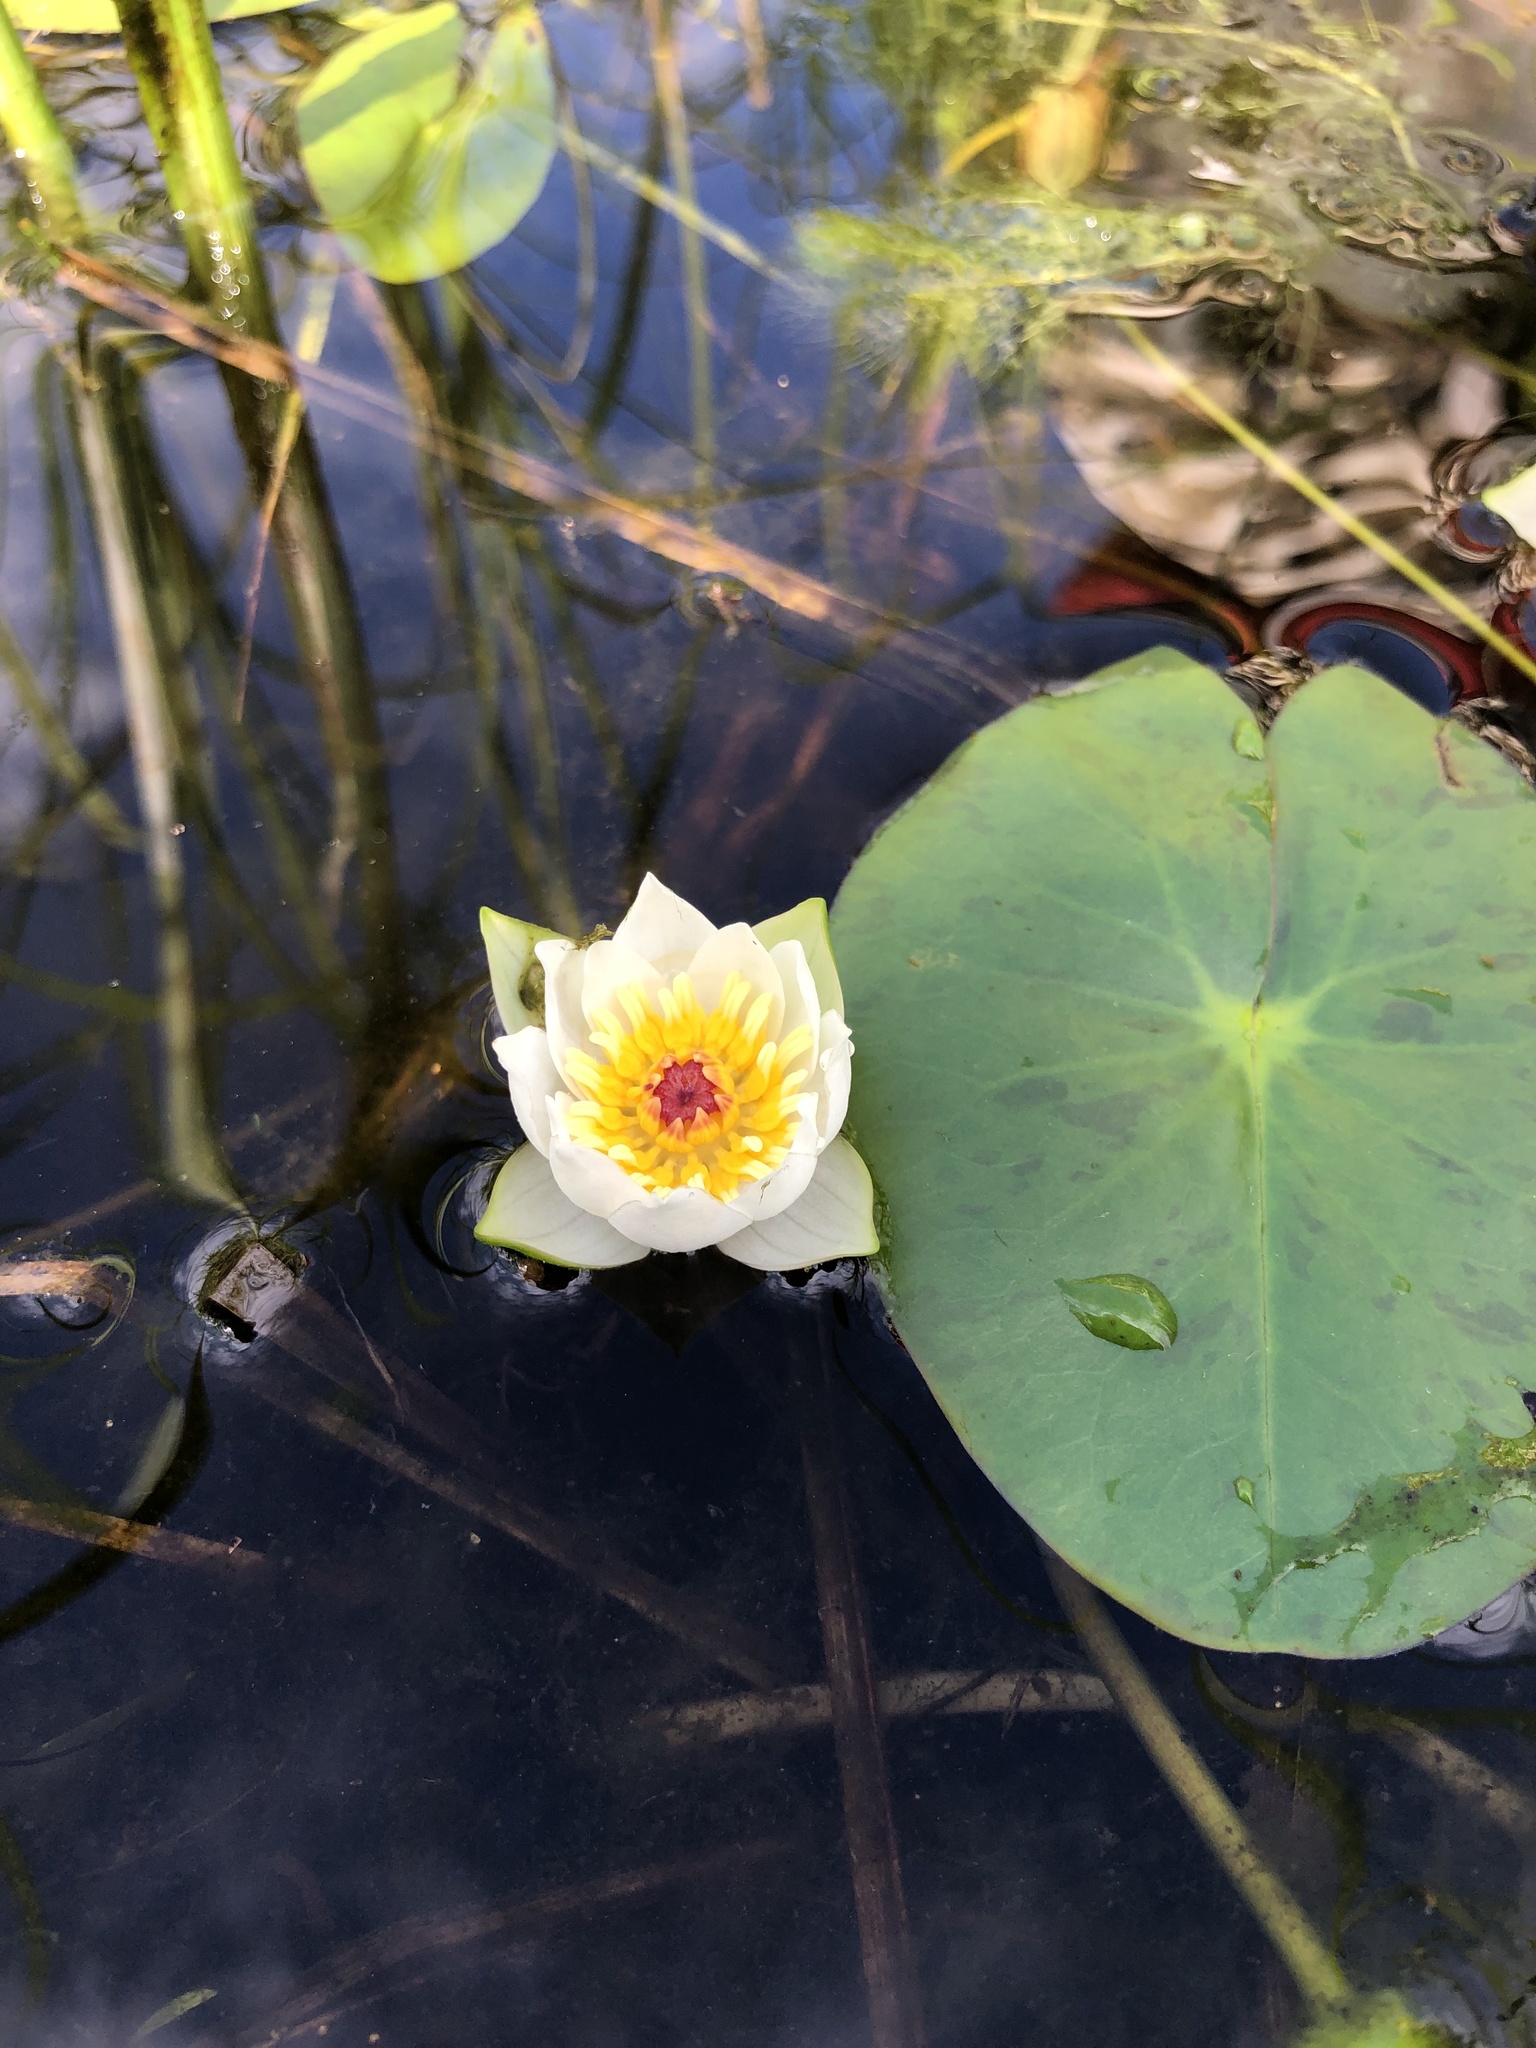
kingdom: Plantae
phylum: Tracheophyta
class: Magnoliopsida
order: Nymphaeales
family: Nymphaeaceae
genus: Nymphaea
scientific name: Nymphaea tetragona
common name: Pygmy water-lily
